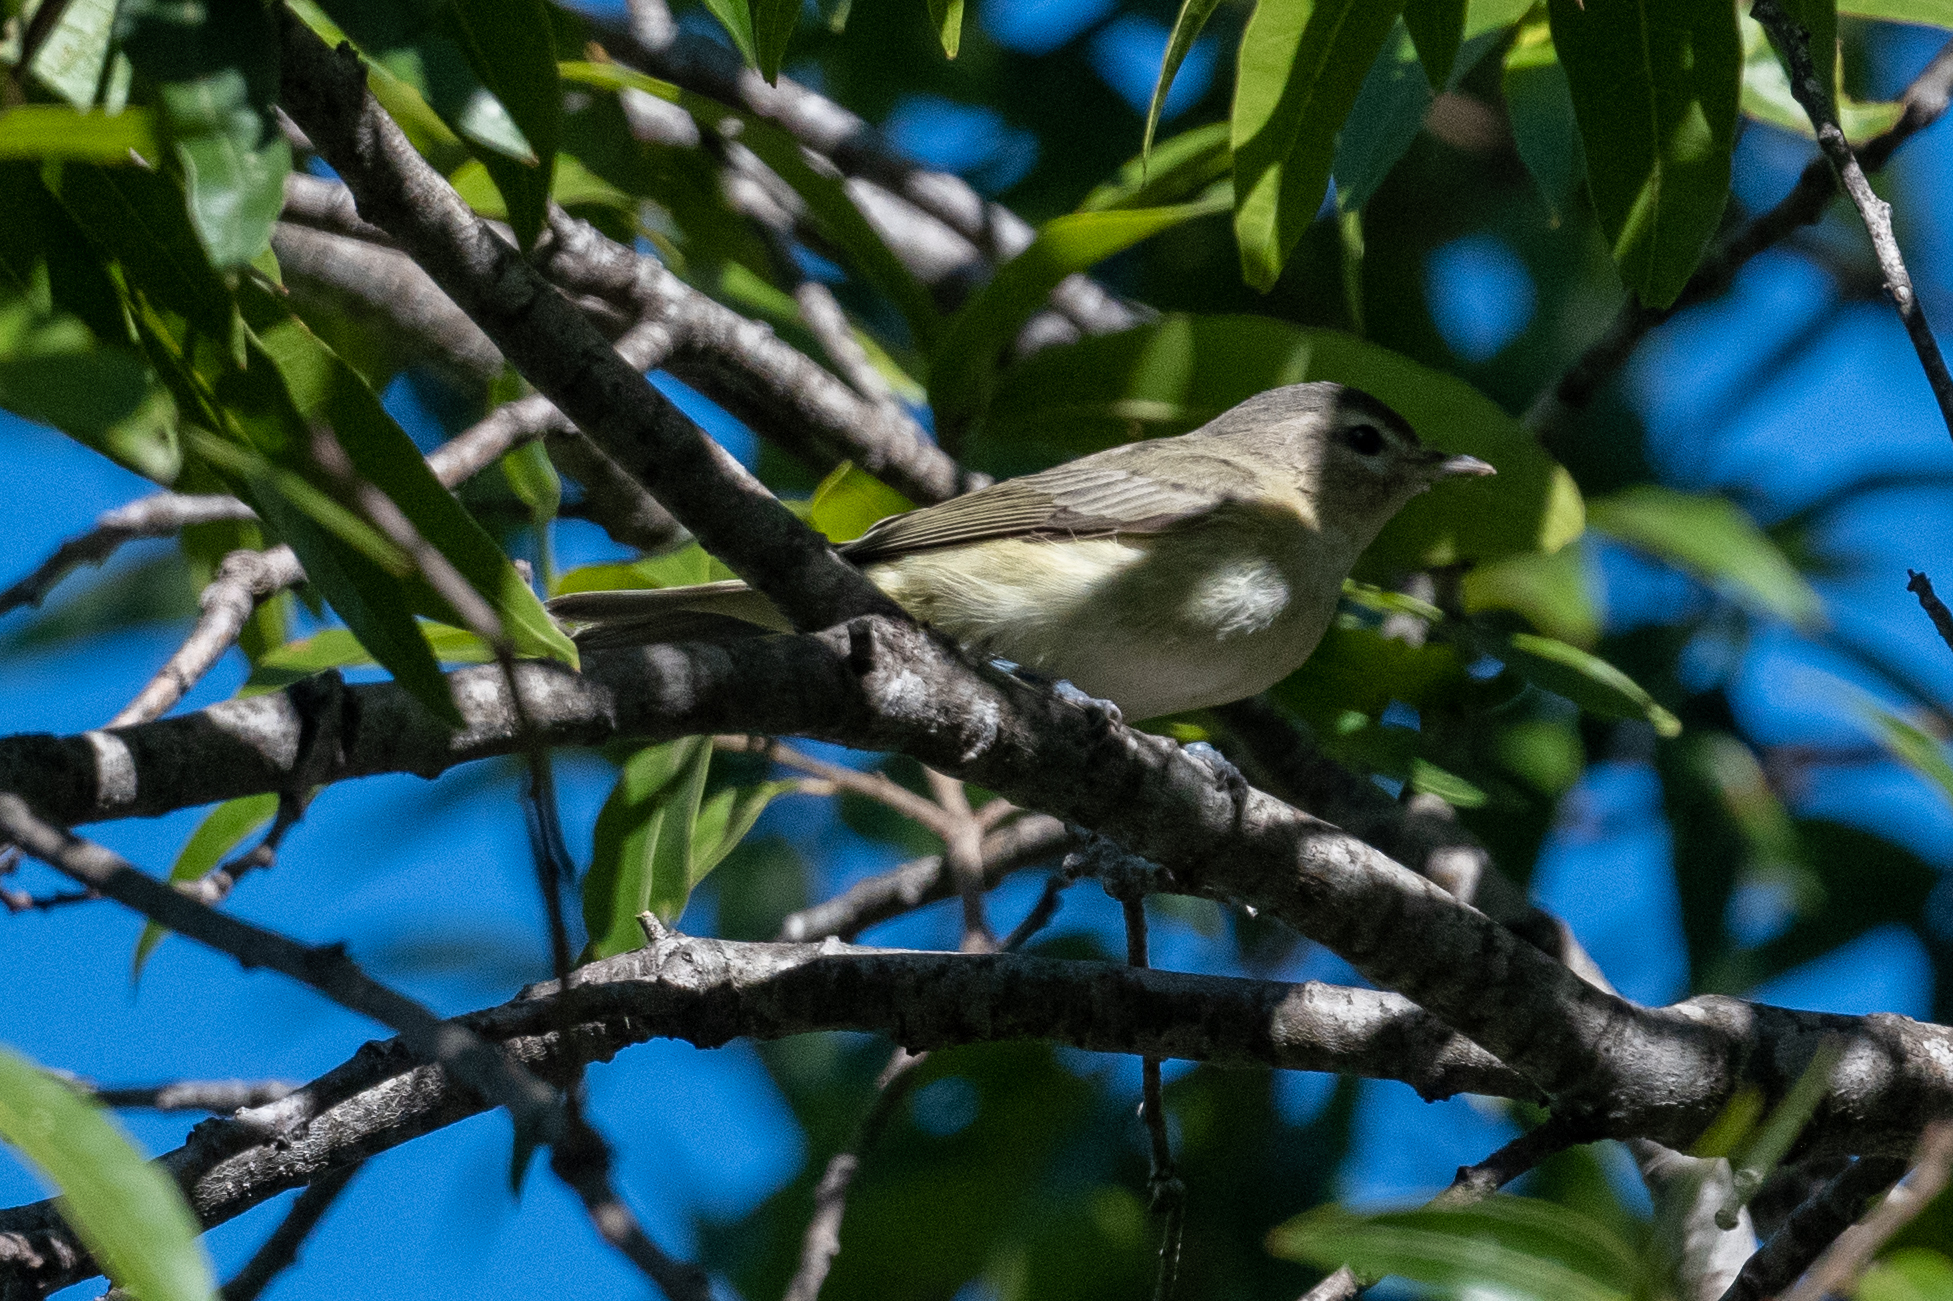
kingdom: Animalia
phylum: Chordata
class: Aves
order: Passeriformes
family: Vireonidae
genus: Vireo
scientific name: Vireo gilvus
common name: Warbling vireo
